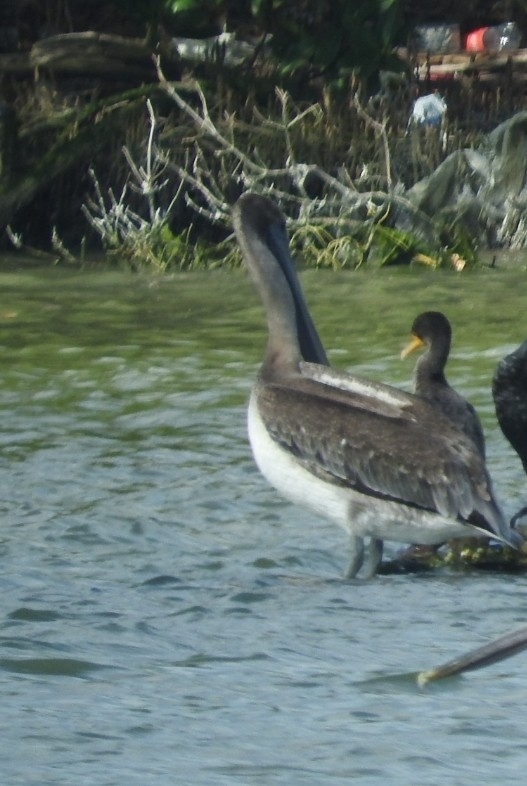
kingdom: Animalia
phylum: Chordata
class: Aves
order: Pelecaniformes
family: Pelecanidae
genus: Pelecanus
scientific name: Pelecanus occidentalis
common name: Brown pelican
